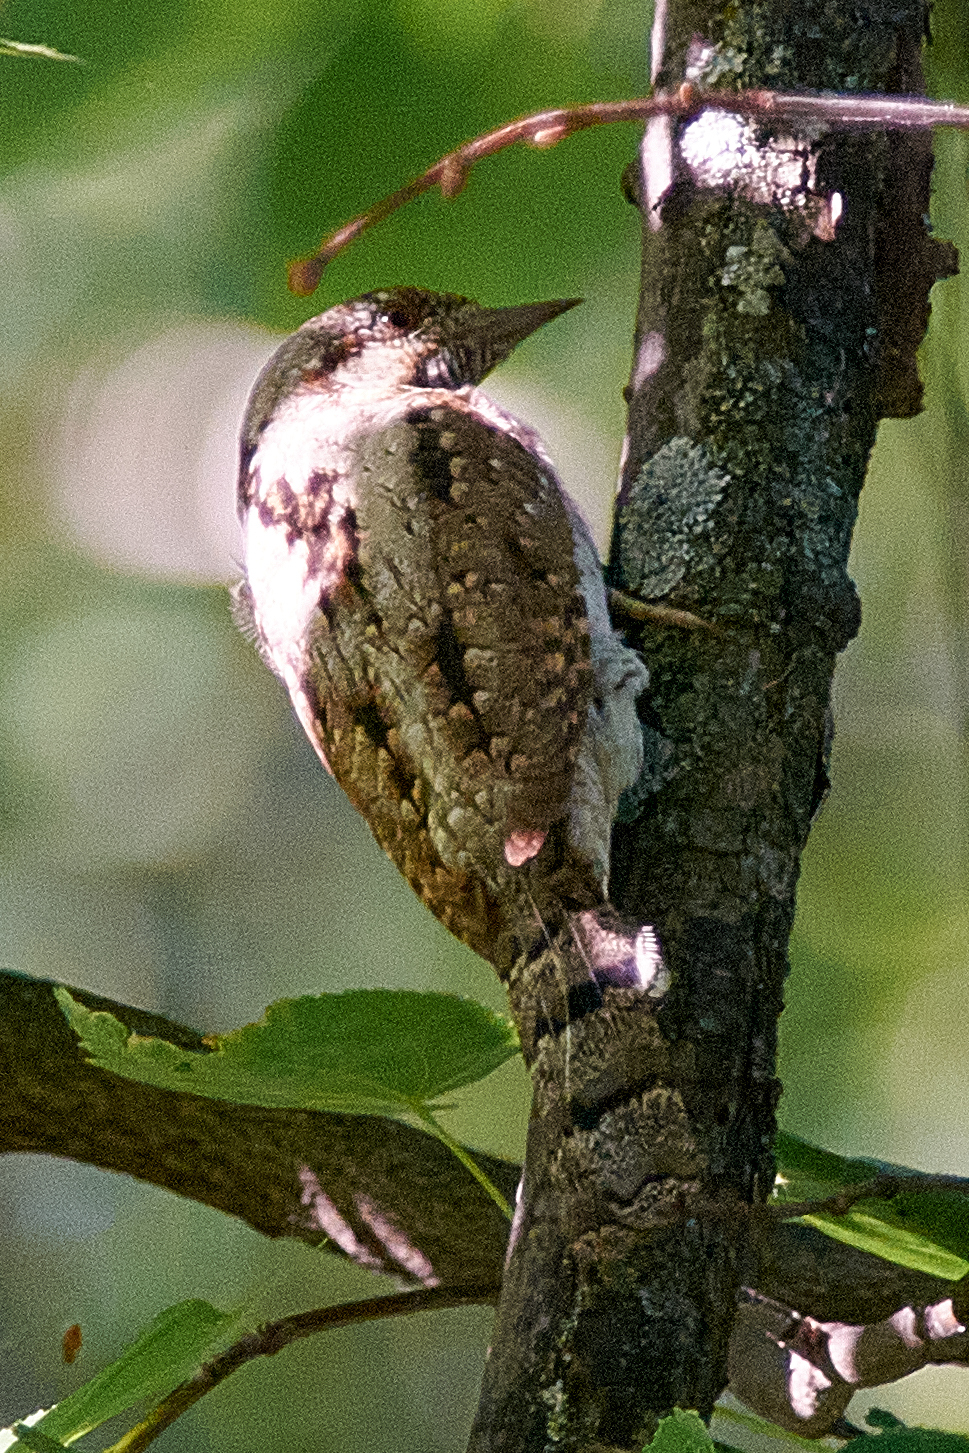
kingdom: Animalia
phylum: Chordata
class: Aves
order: Piciformes
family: Picidae
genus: Jynx
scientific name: Jynx torquilla
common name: Eurasian wryneck
